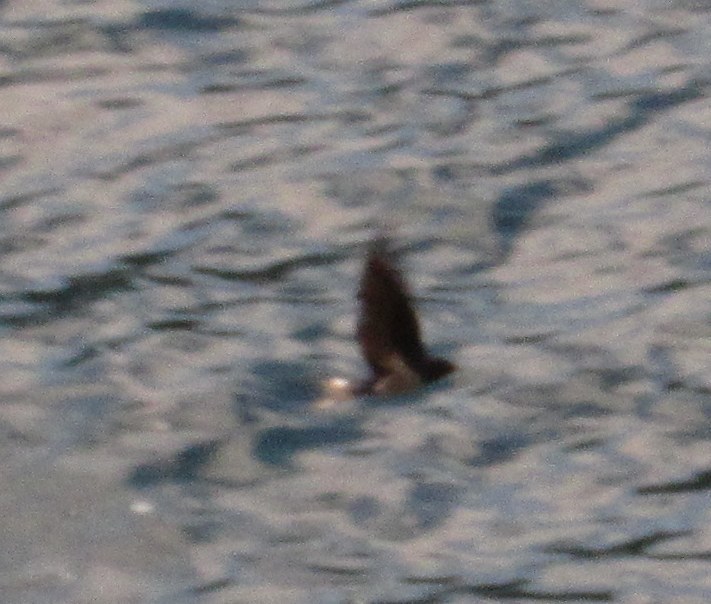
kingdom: Animalia
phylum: Chordata
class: Aves
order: Passeriformes
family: Hirundinidae
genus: Hirundo
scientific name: Hirundo rustica
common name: Barn swallow
